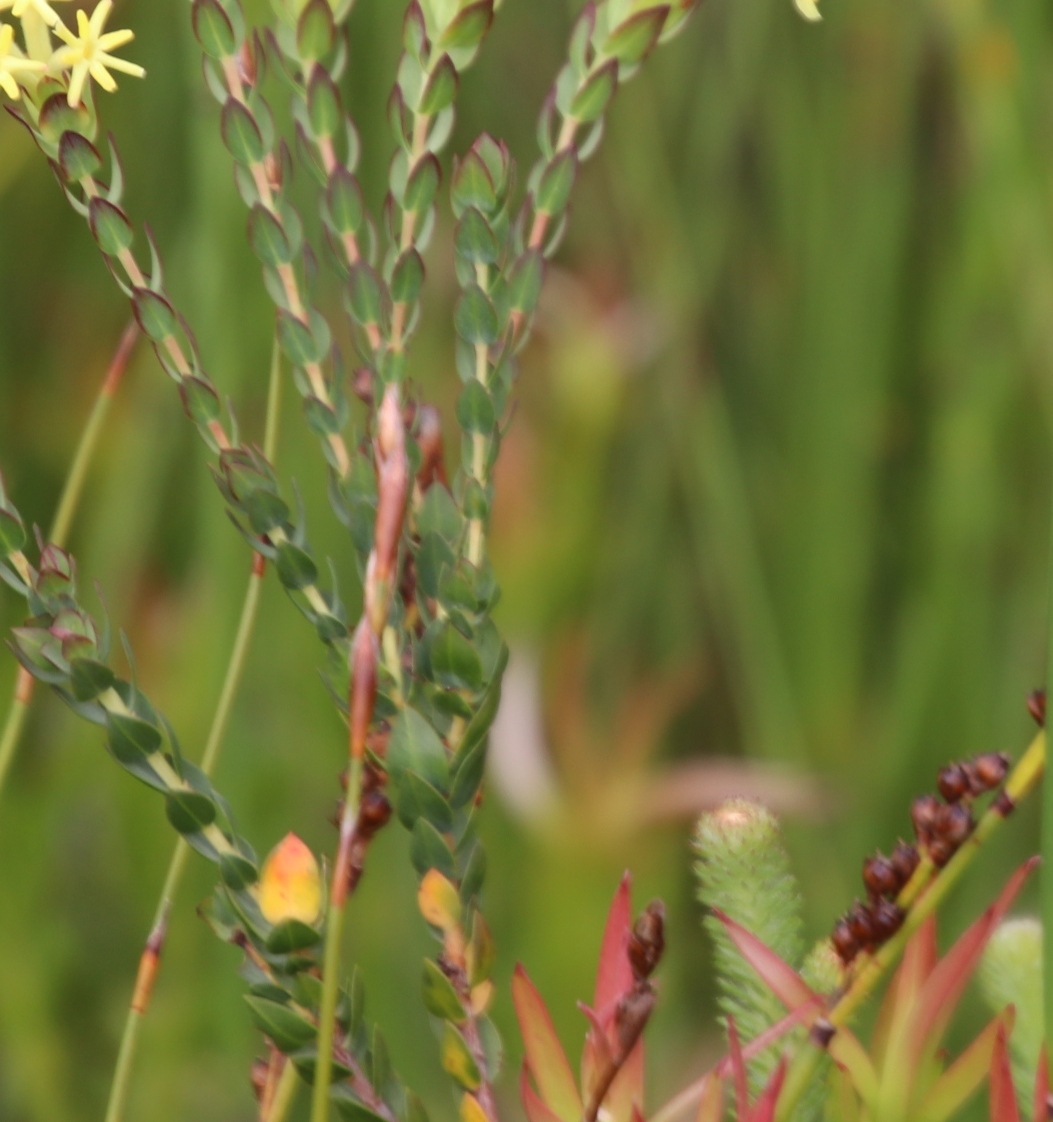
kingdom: Plantae
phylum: Tracheophyta
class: Magnoliopsida
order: Malvales
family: Thymelaeaceae
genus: Gnidia
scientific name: Gnidia oppositifolia
